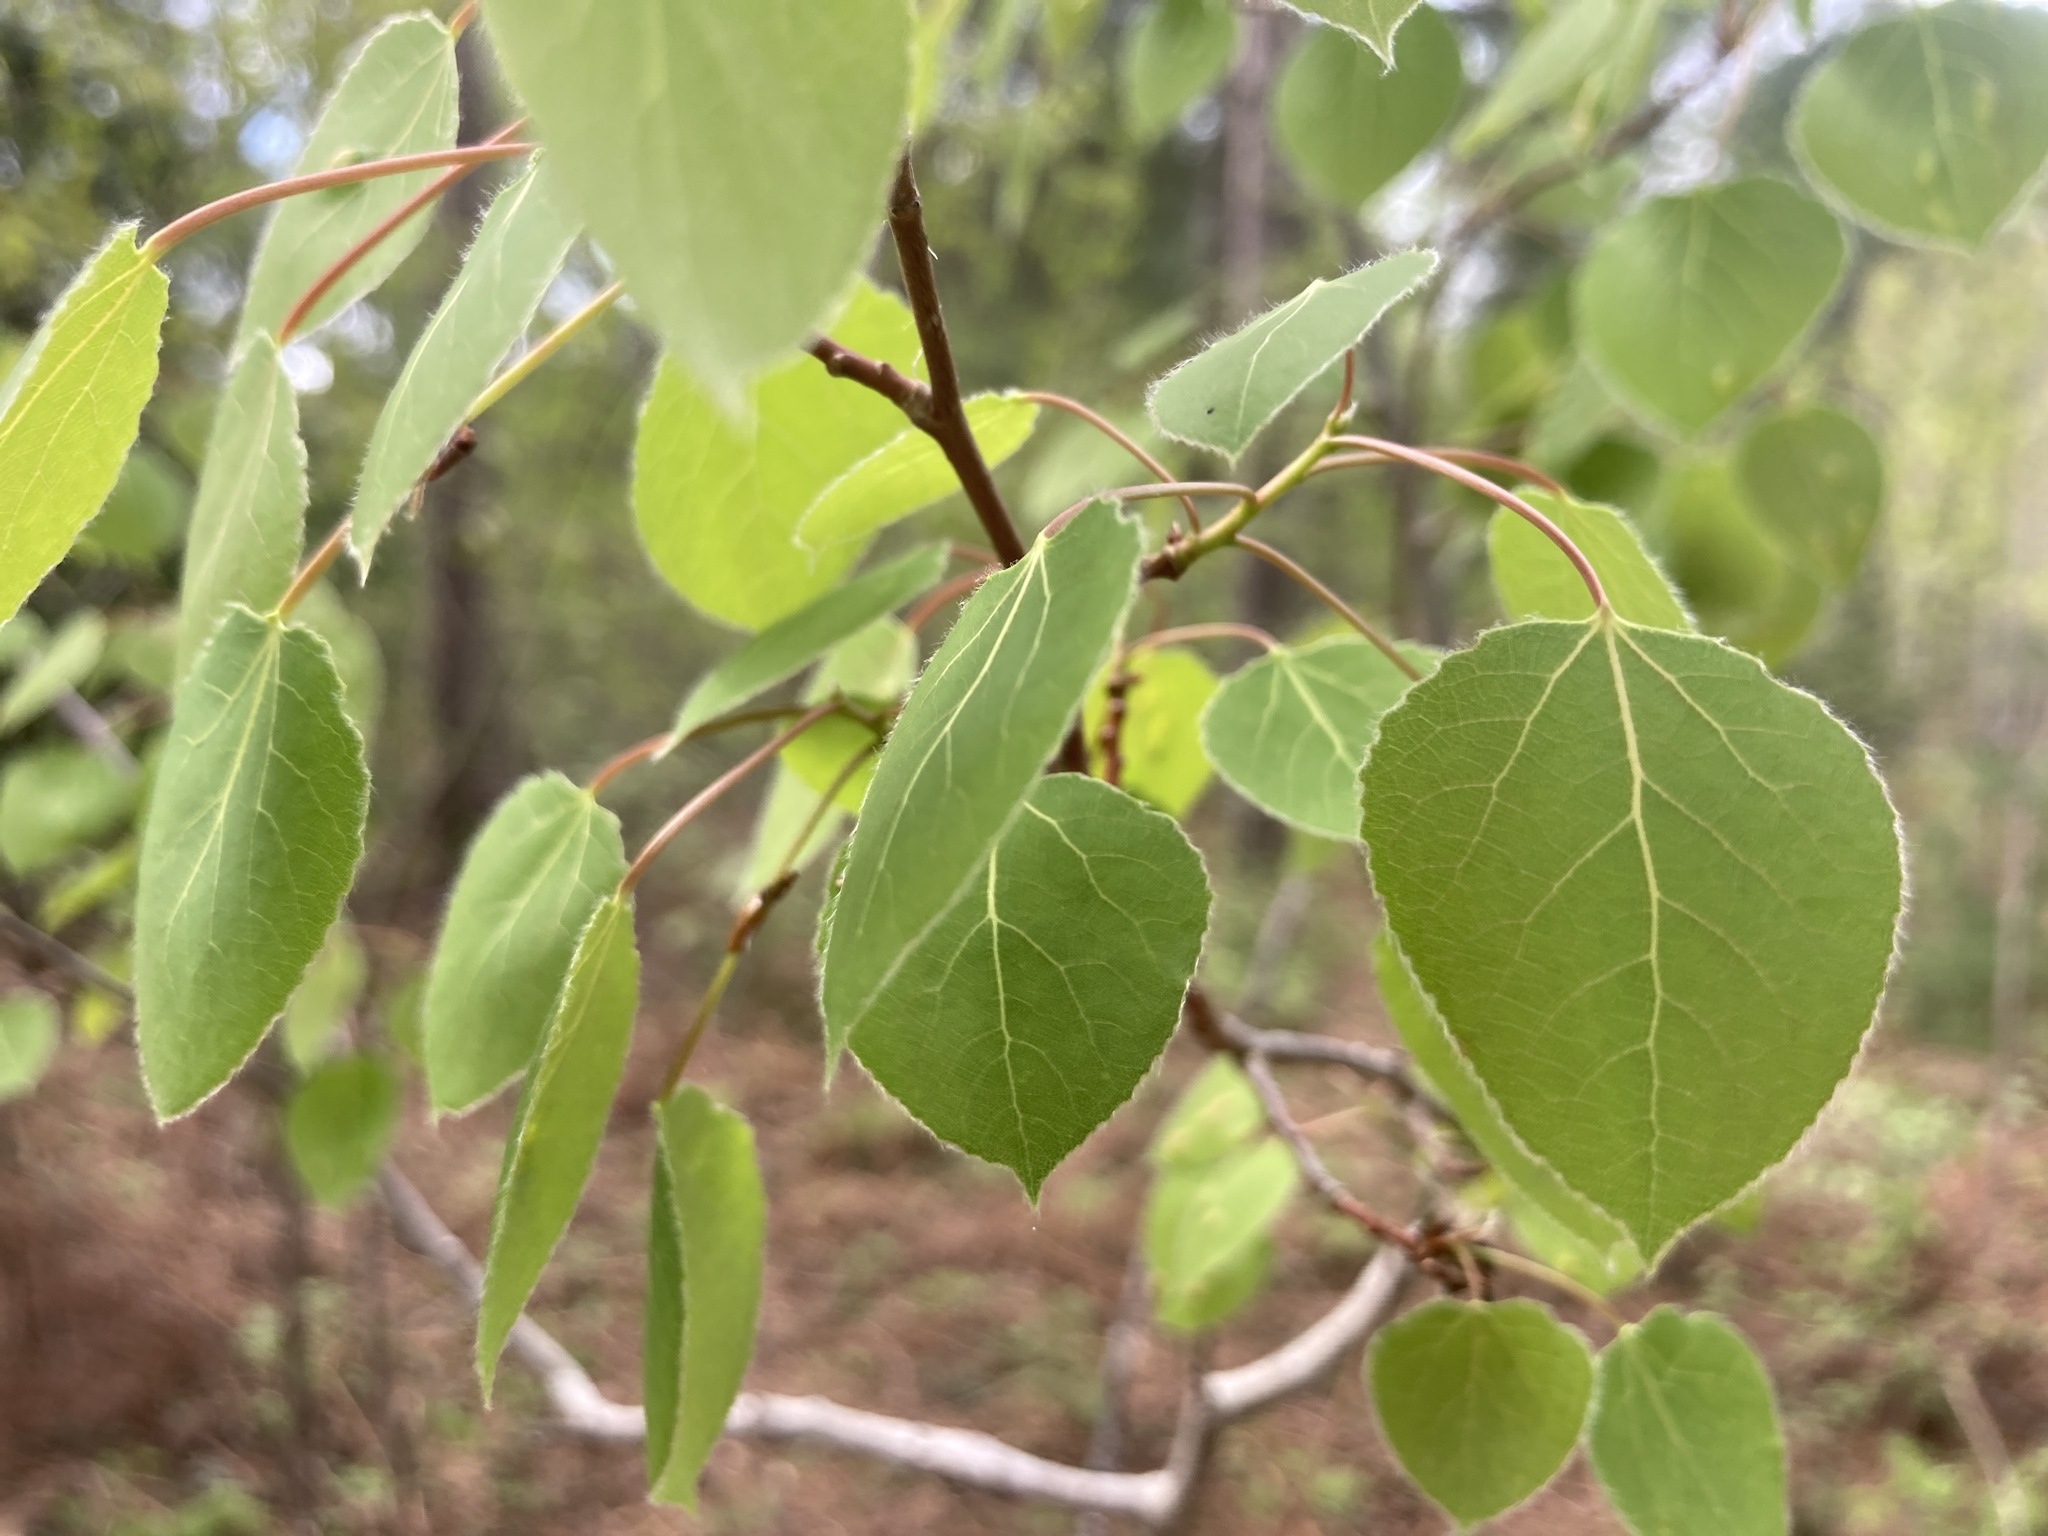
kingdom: Plantae
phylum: Tracheophyta
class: Magnoliopsida
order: Malpighiales
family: Salicaceae
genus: Populus
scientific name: Populus tremuloides
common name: Quaking aspen
